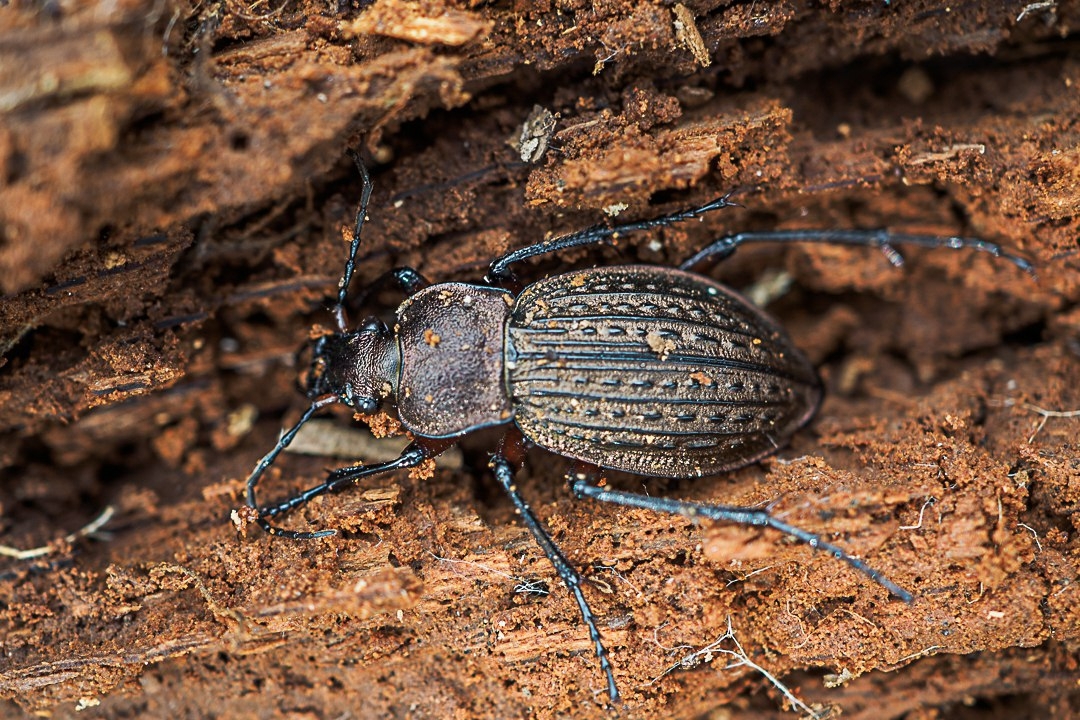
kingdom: Animalia
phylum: Arthropoda
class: Insecta
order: Coleoptera
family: Carabidae
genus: Carabus
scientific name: Carabus cancellatus
